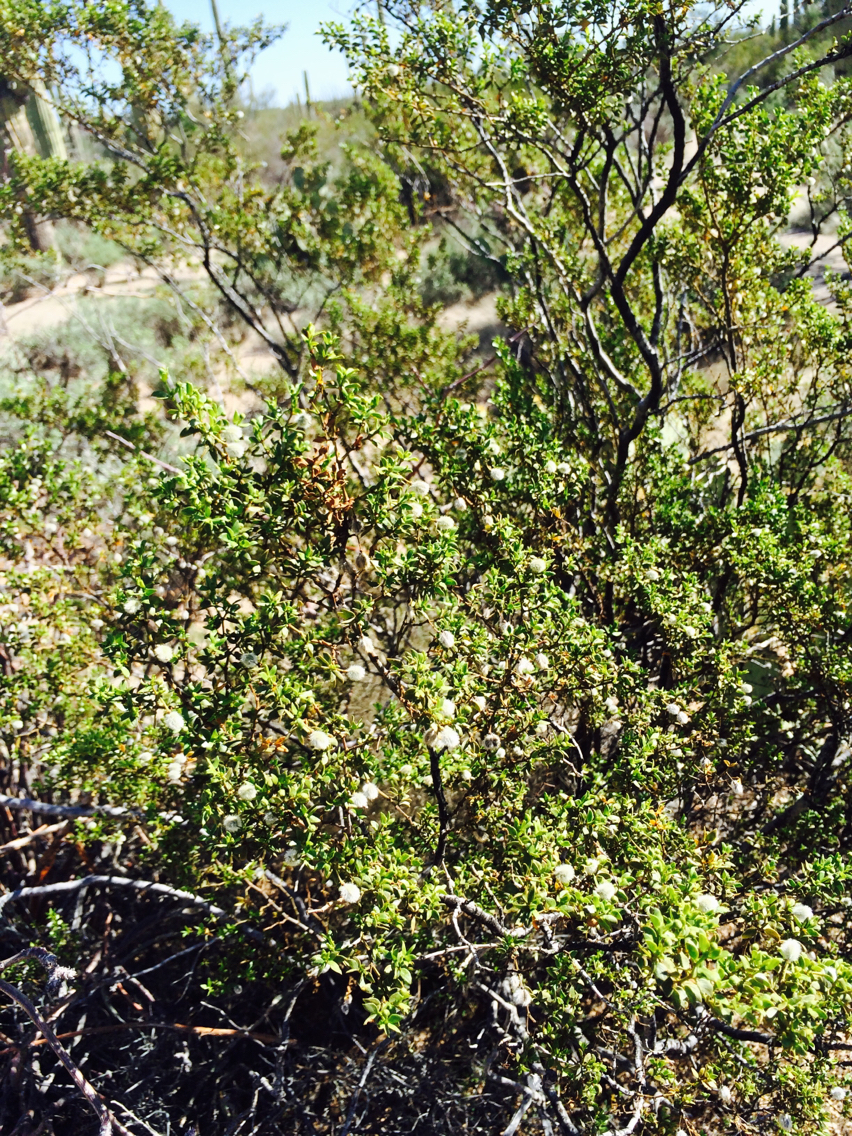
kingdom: Plantae
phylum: Tracheophyta
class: Magnoliopsida
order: Zygophyllales
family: Zygophyllaceae
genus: Larrea
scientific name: Larrea tridentata
